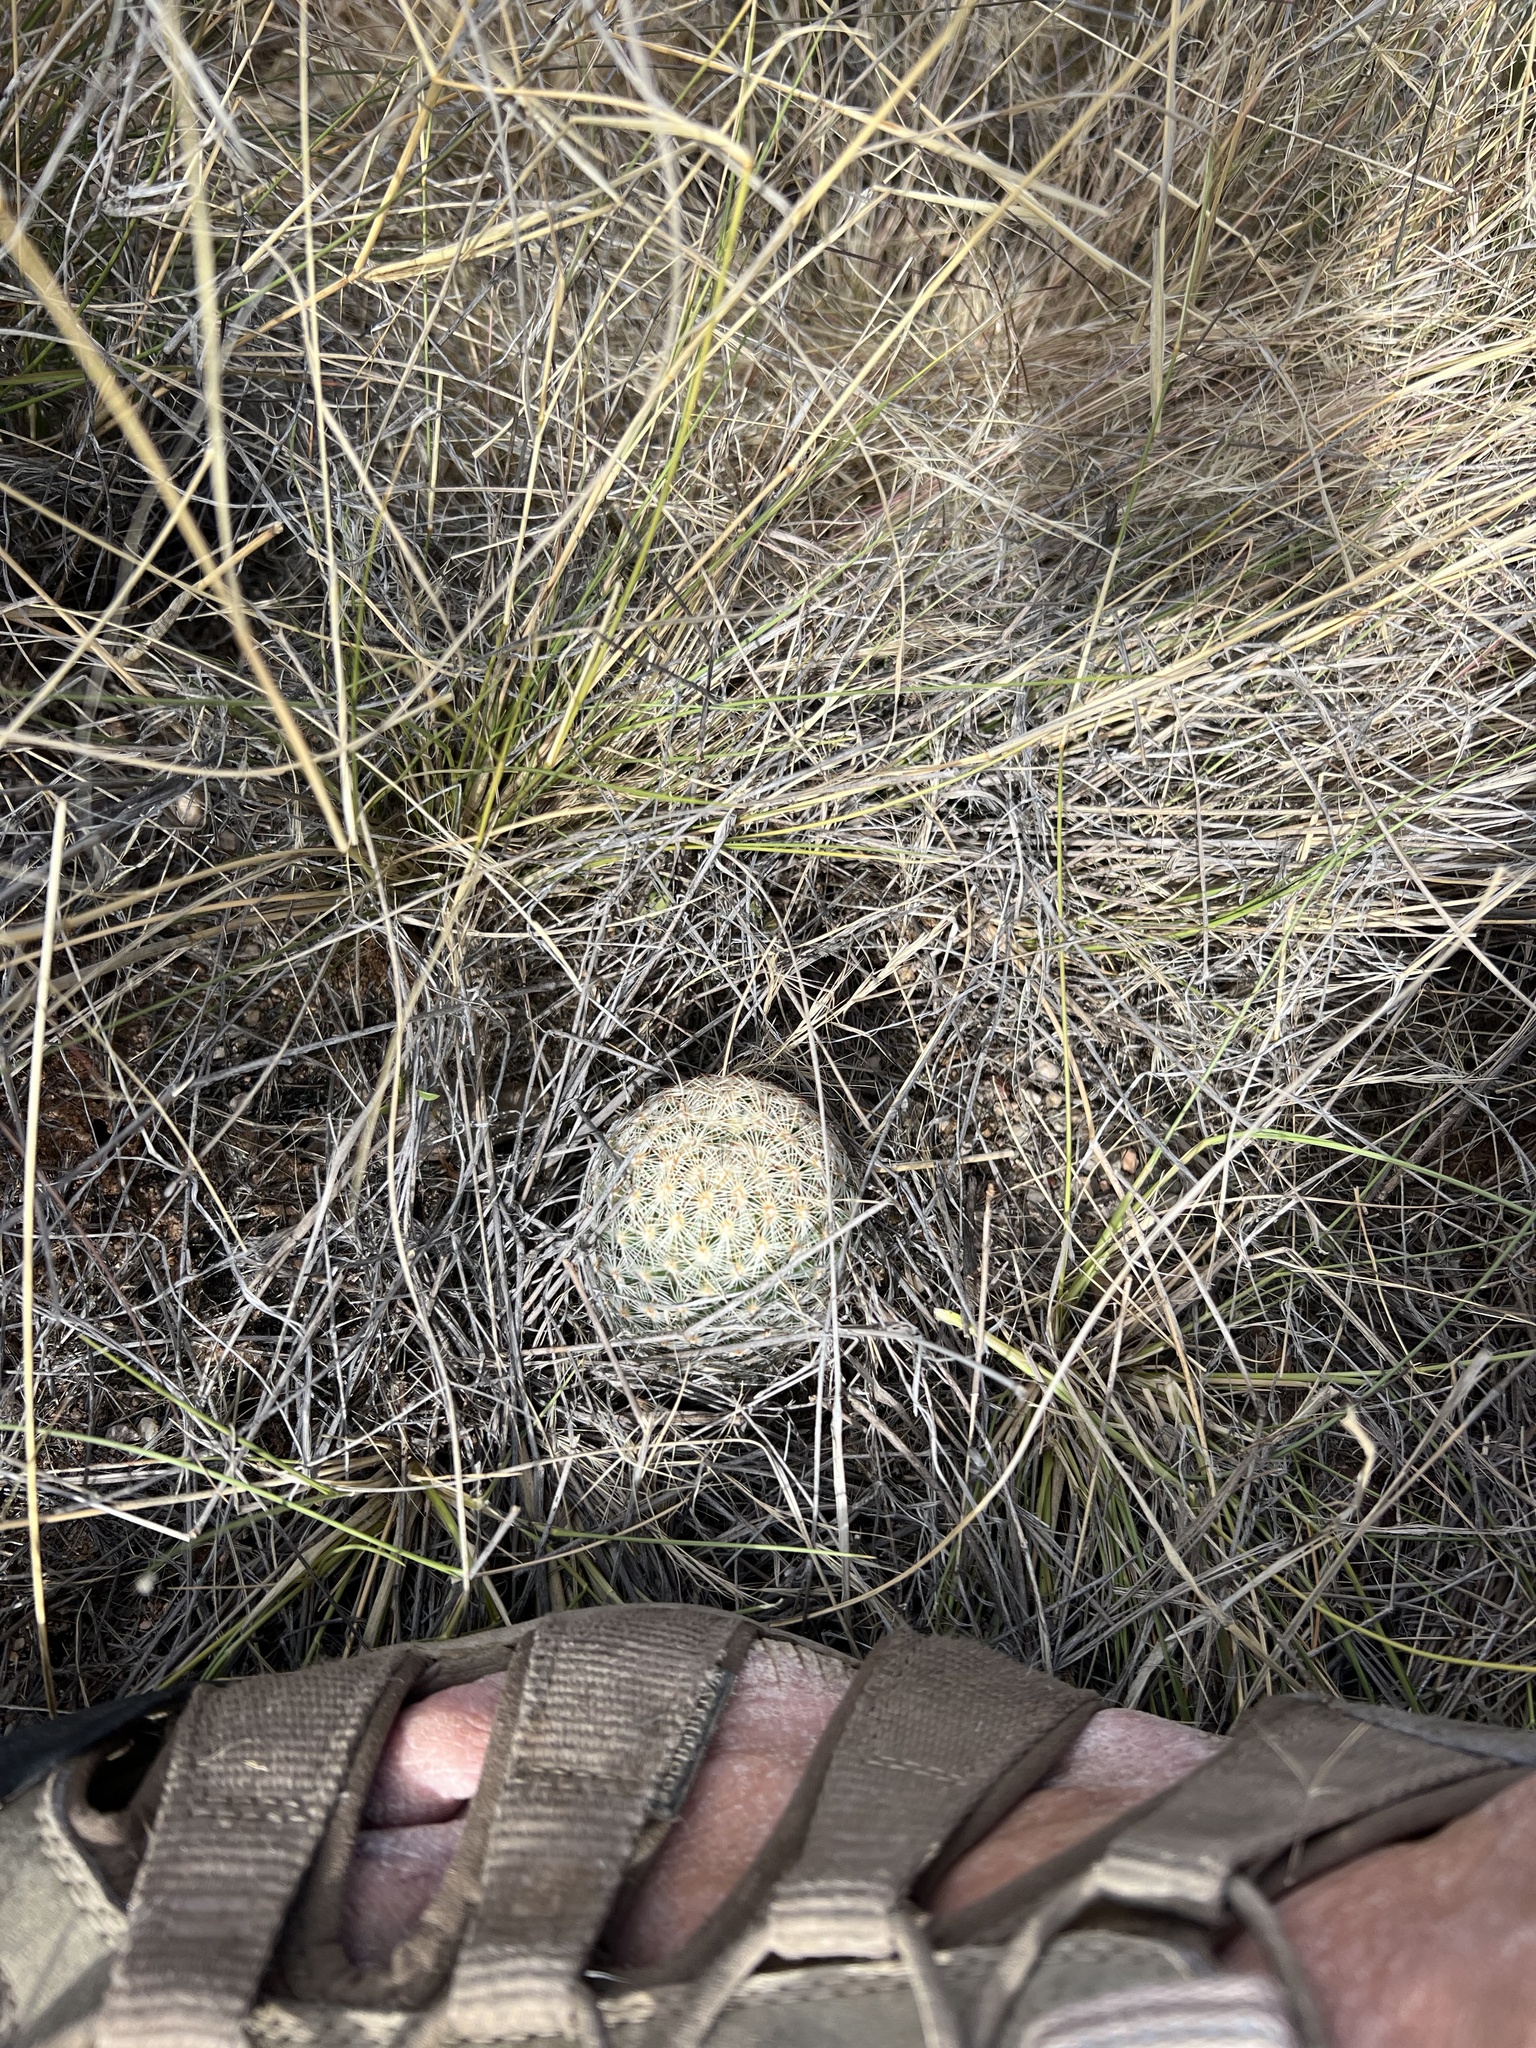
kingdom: Plantae
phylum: Tracheophyta
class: Magnoliopsida
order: Caryophyllales
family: Cactaceae
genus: Cochemiea
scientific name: Cochemiea grahamii
